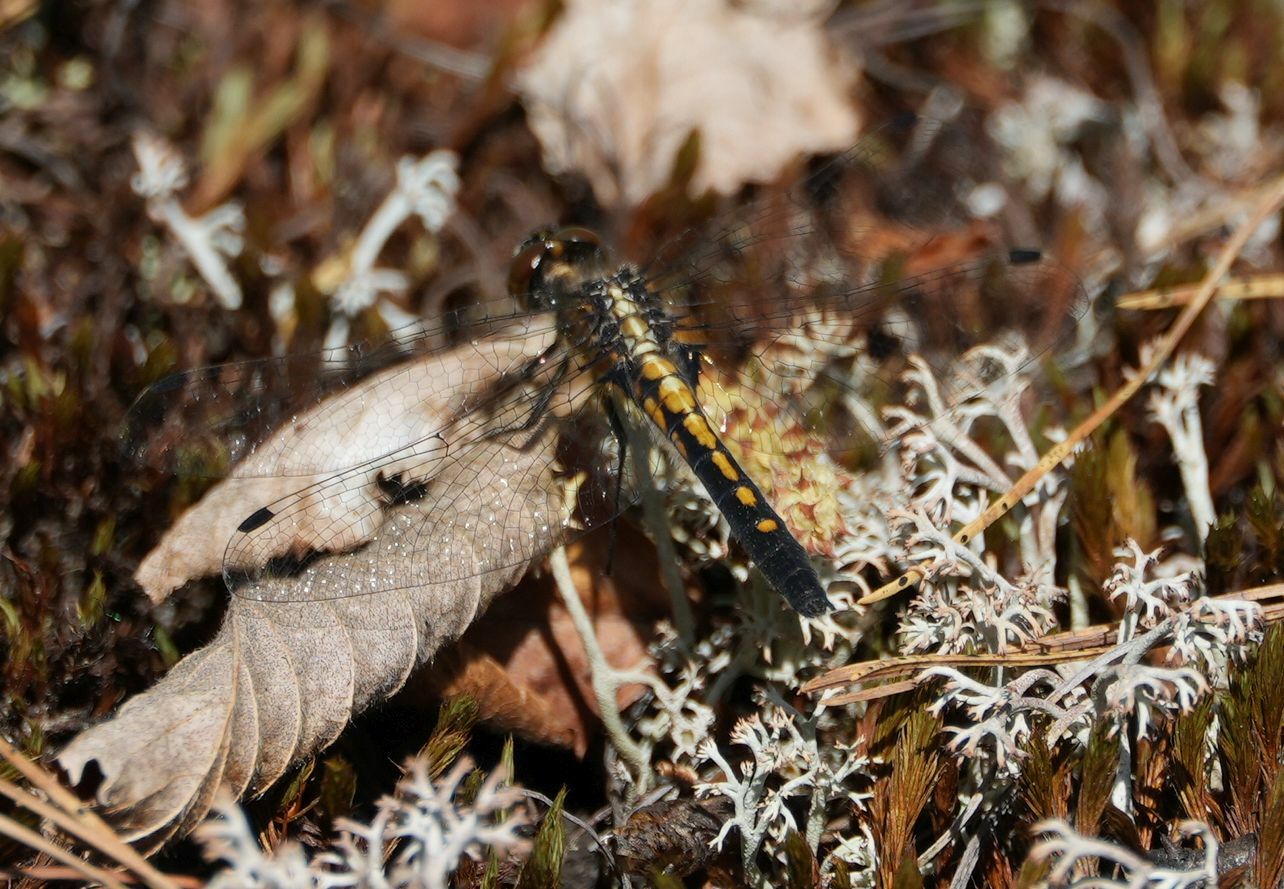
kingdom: Animalia
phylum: Arthropoda
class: Insecta
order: Odonata
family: Libellulidae
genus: Leucorrhinia
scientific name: Leucorrhinia intacta
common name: Dot-tailed whiteface
